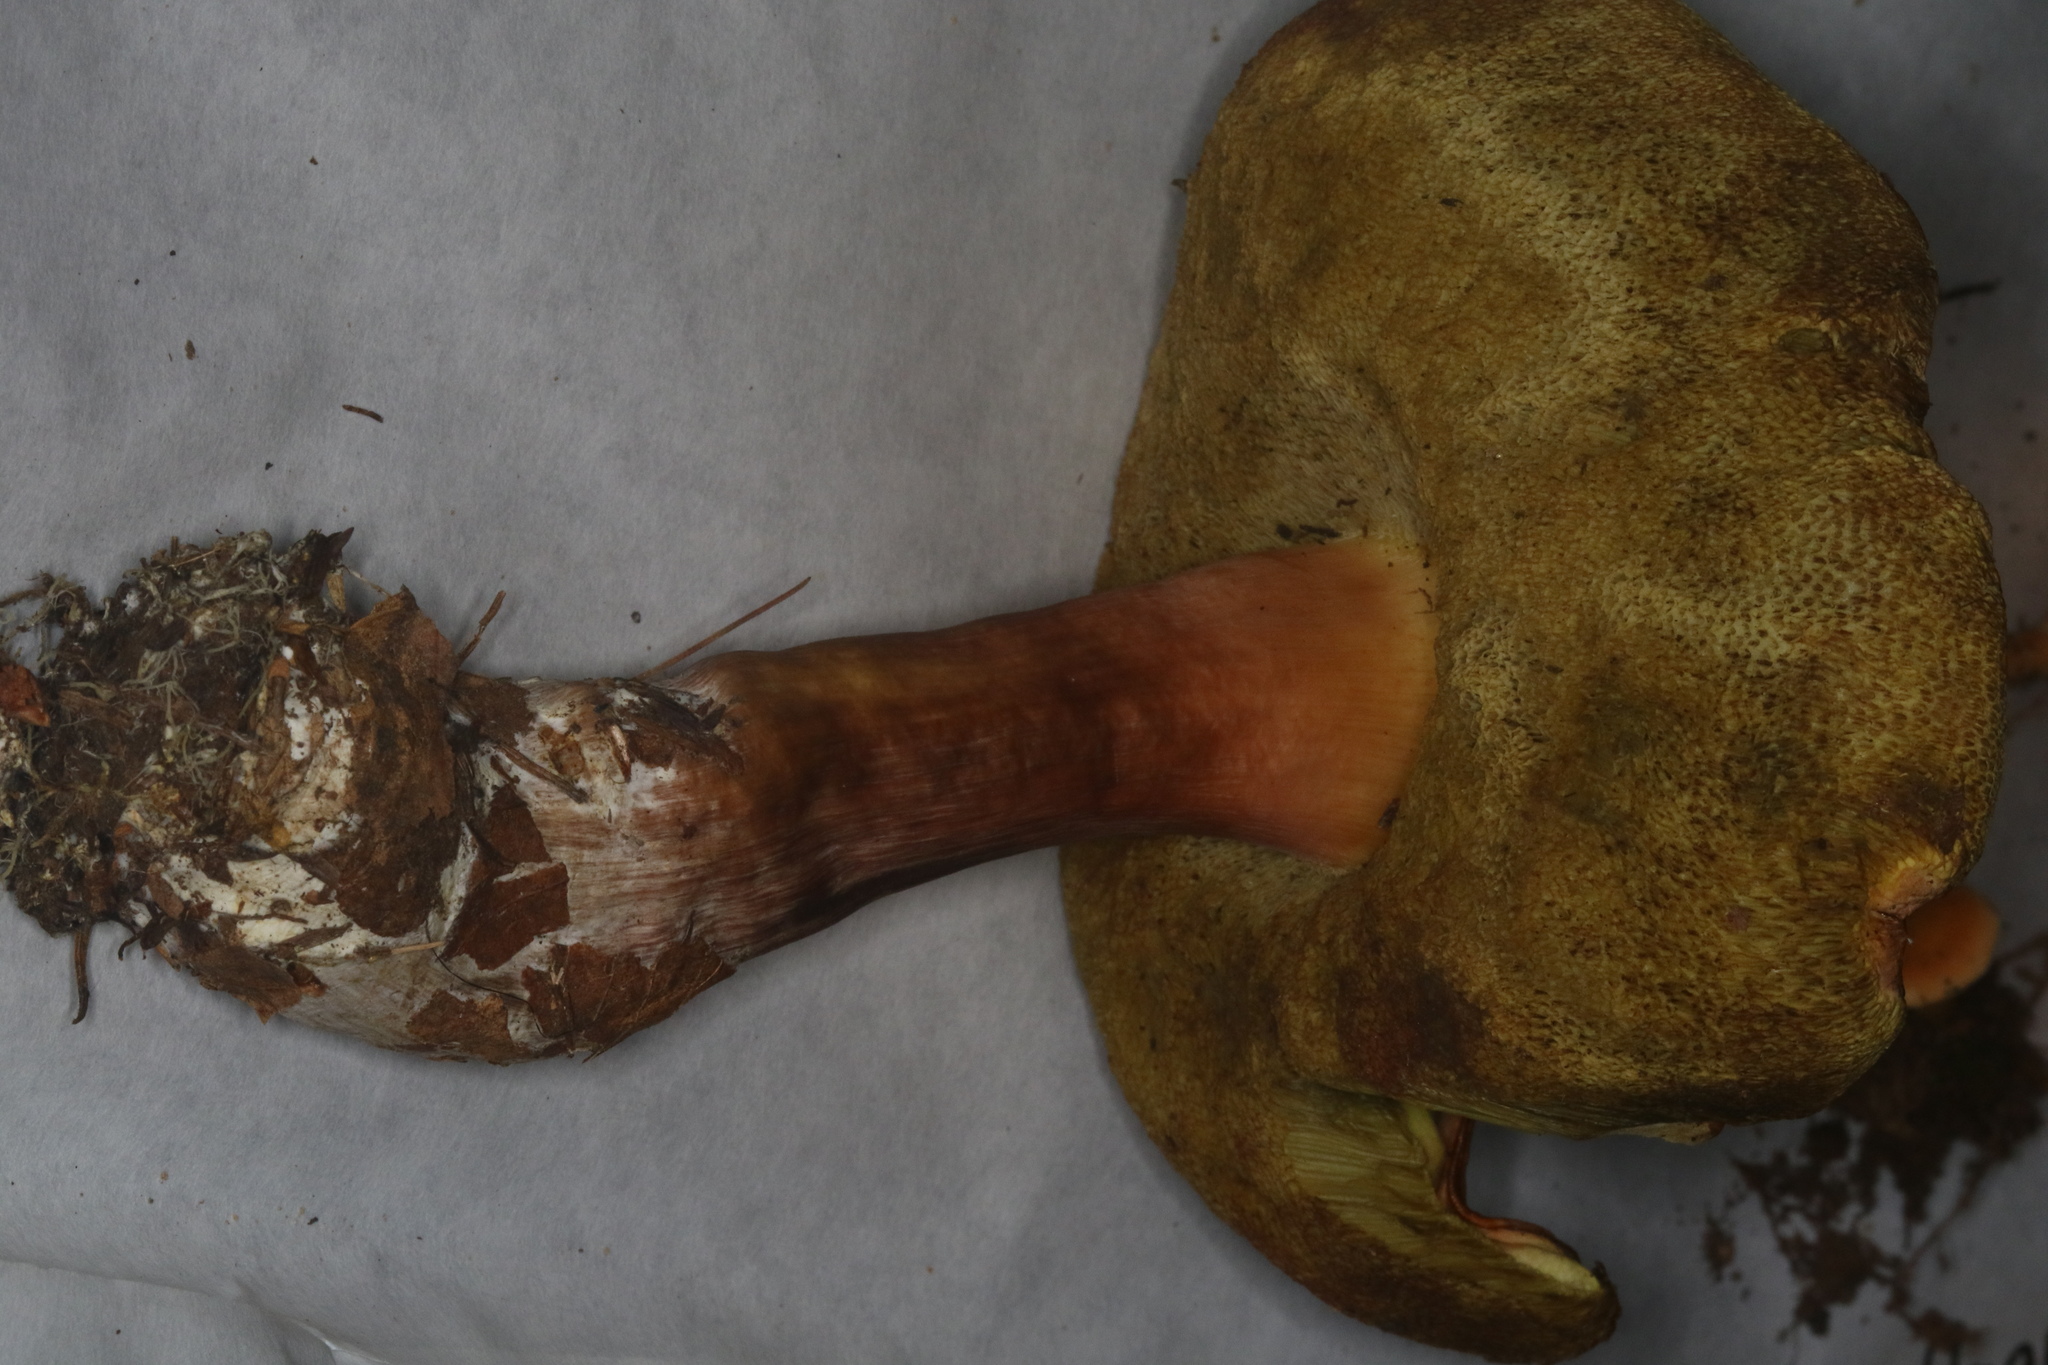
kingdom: Fungi
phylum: Basidiomycota
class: Agaricomycetes
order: Boletales
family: Boletaceae
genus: Xanthoconium
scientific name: Xanthoconium purpureum
